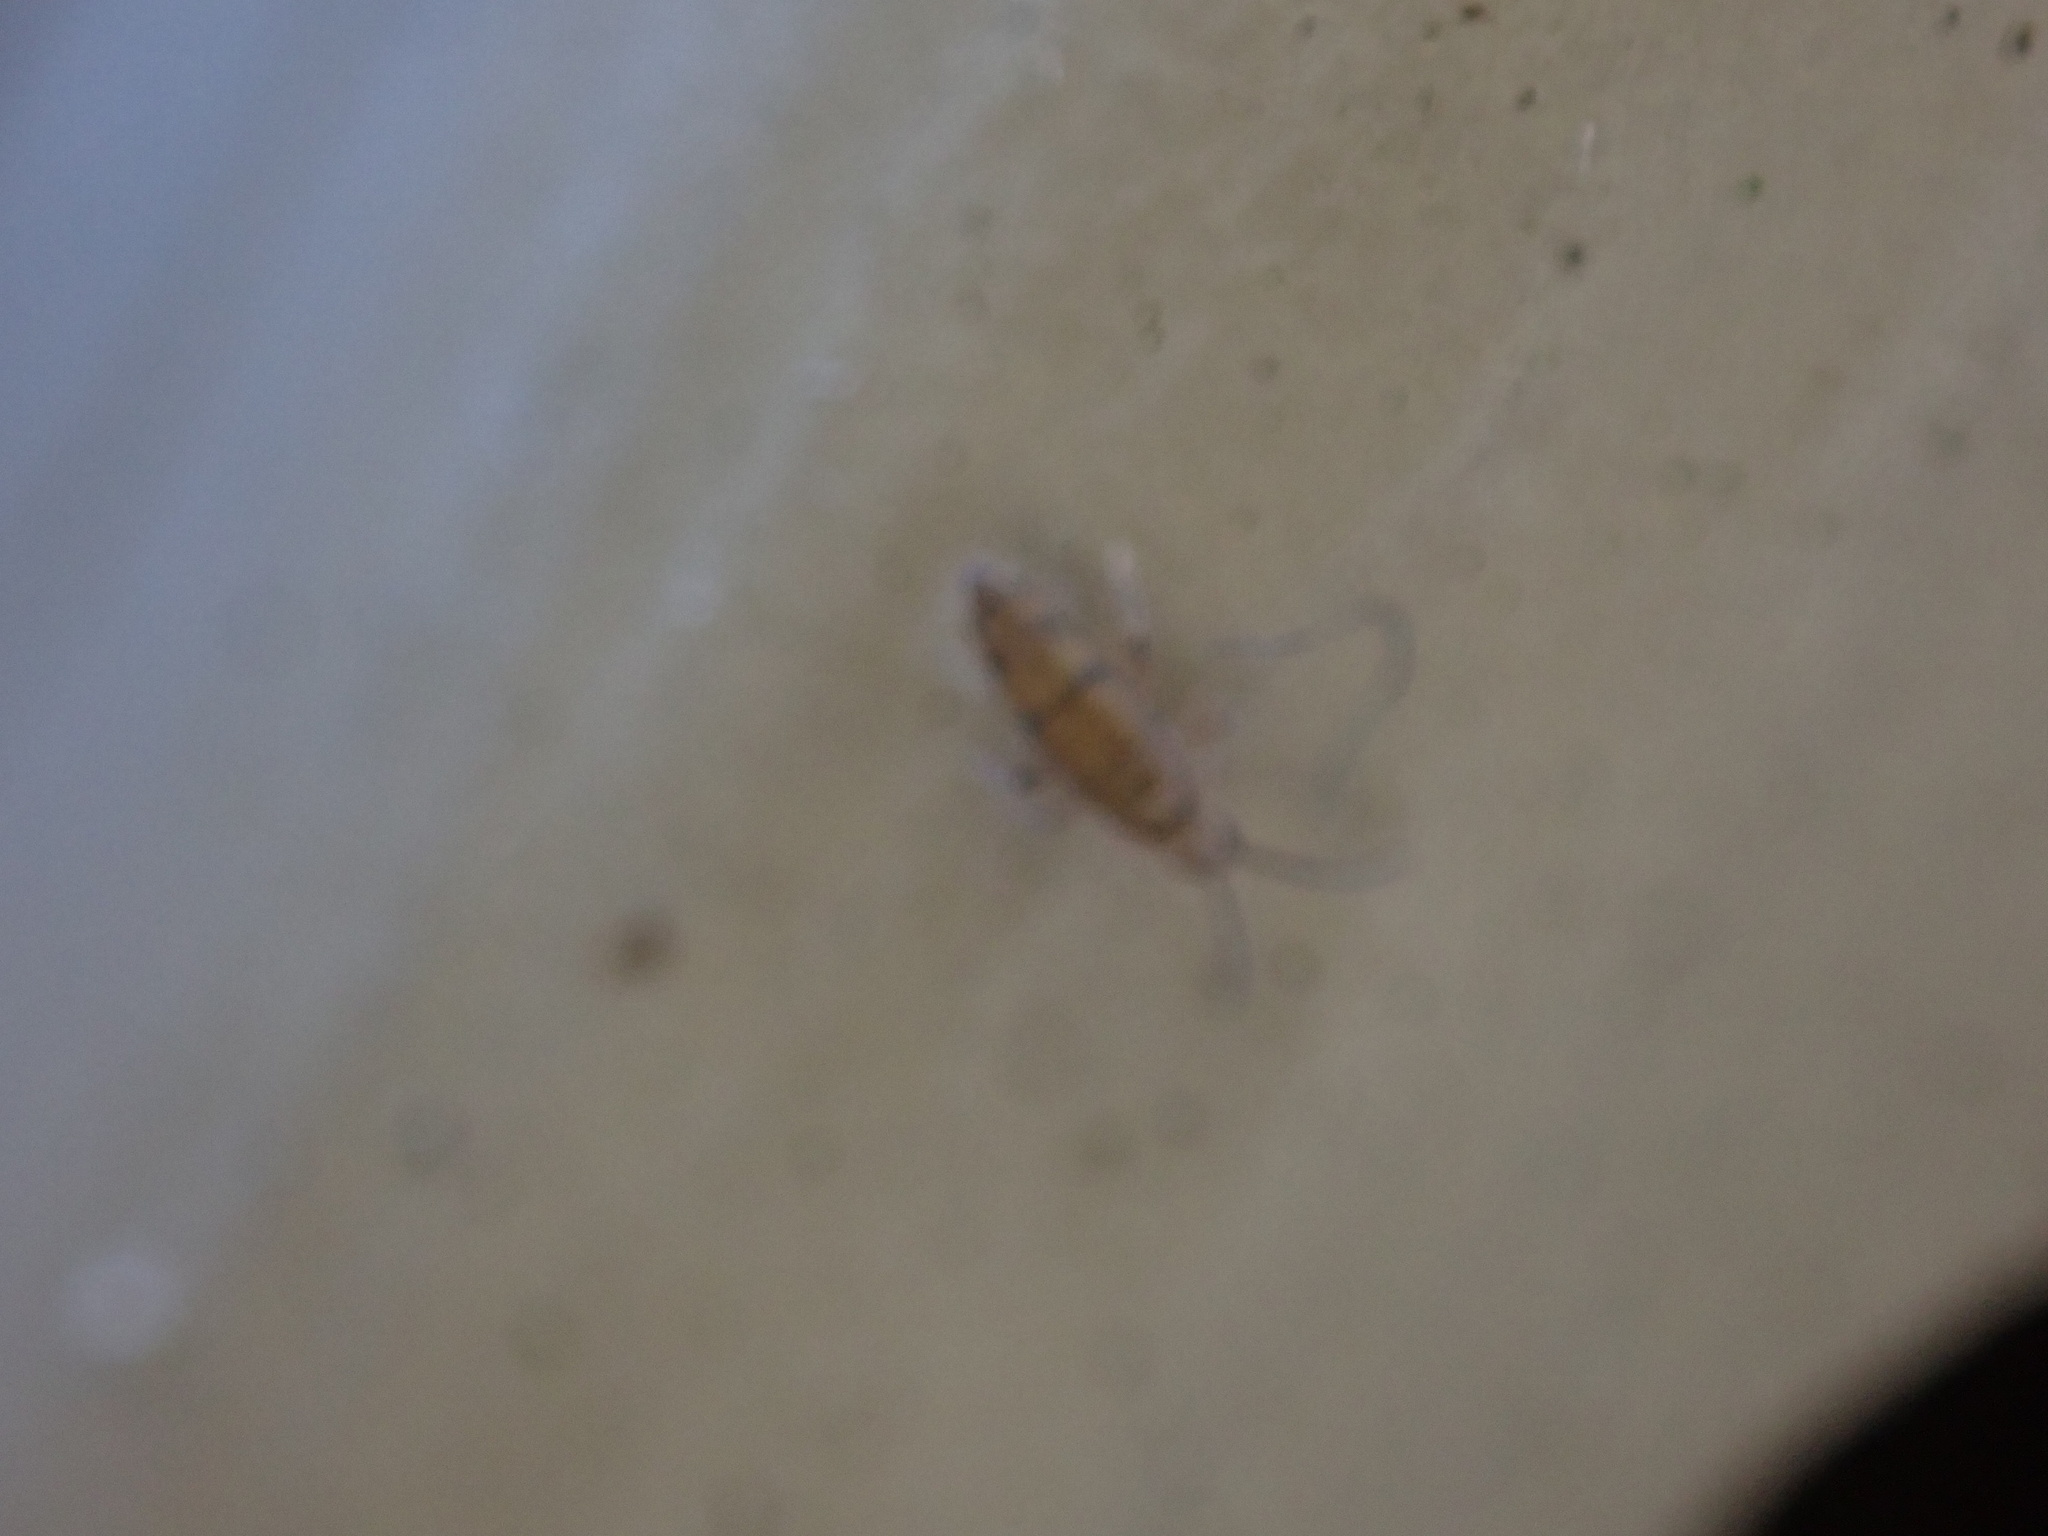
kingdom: Animalia
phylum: Arthropoda
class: Collembola
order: Entomobryomorpha
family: Entomobryidae
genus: Willowsia
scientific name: Willowsia nigromaculata
